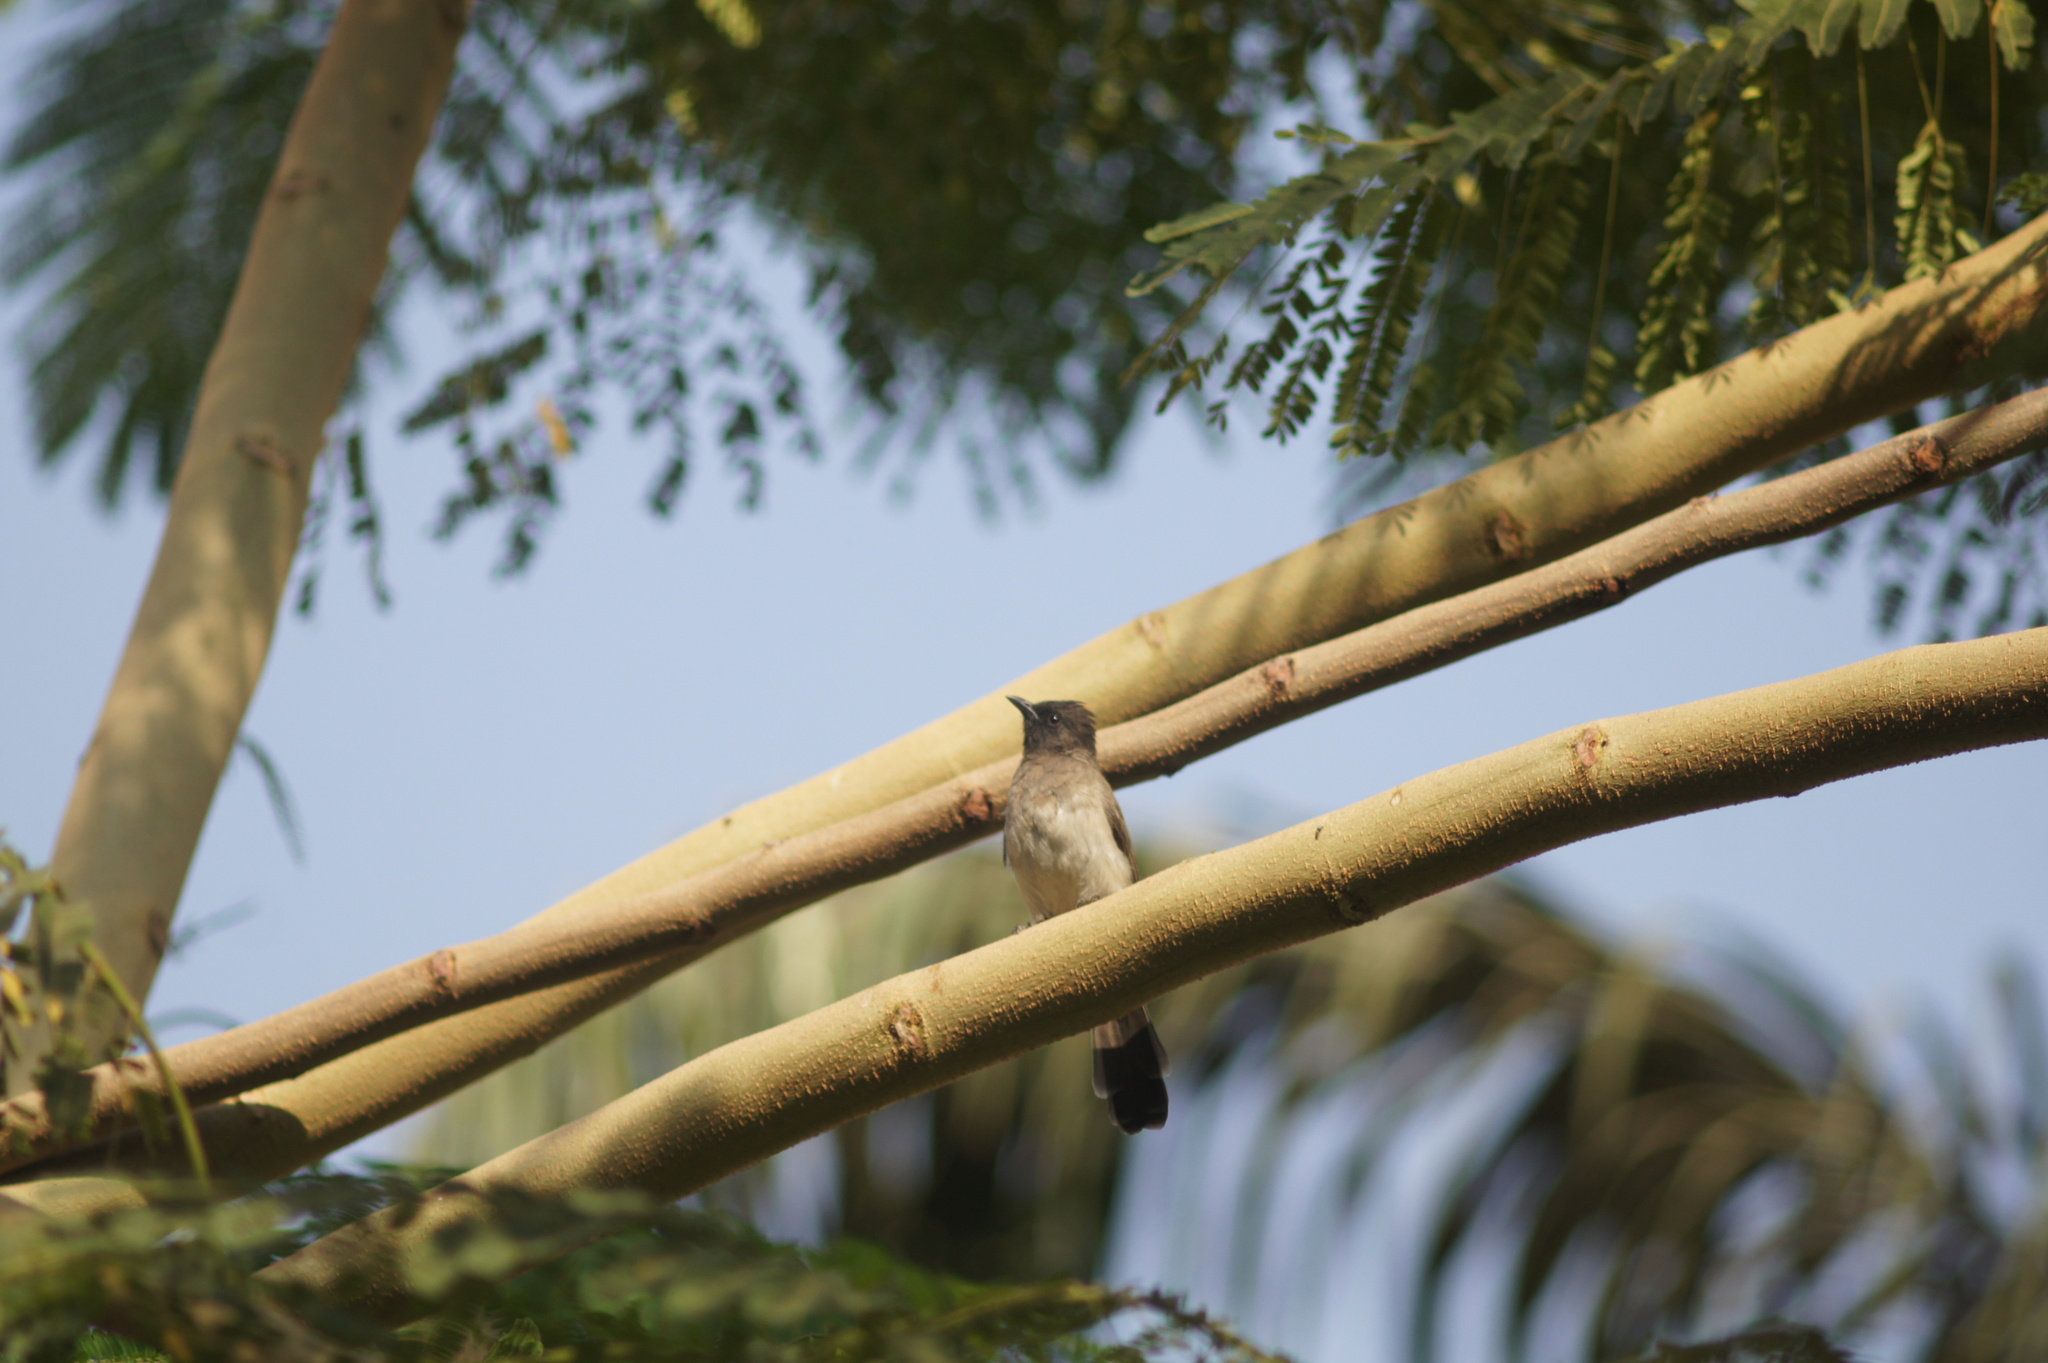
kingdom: Animalia
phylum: Chordata
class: Aves
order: Passeriformes
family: Pycnonotidae
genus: Pycnonotus
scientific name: Pycnonotus barbatus
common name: Common bulbul
